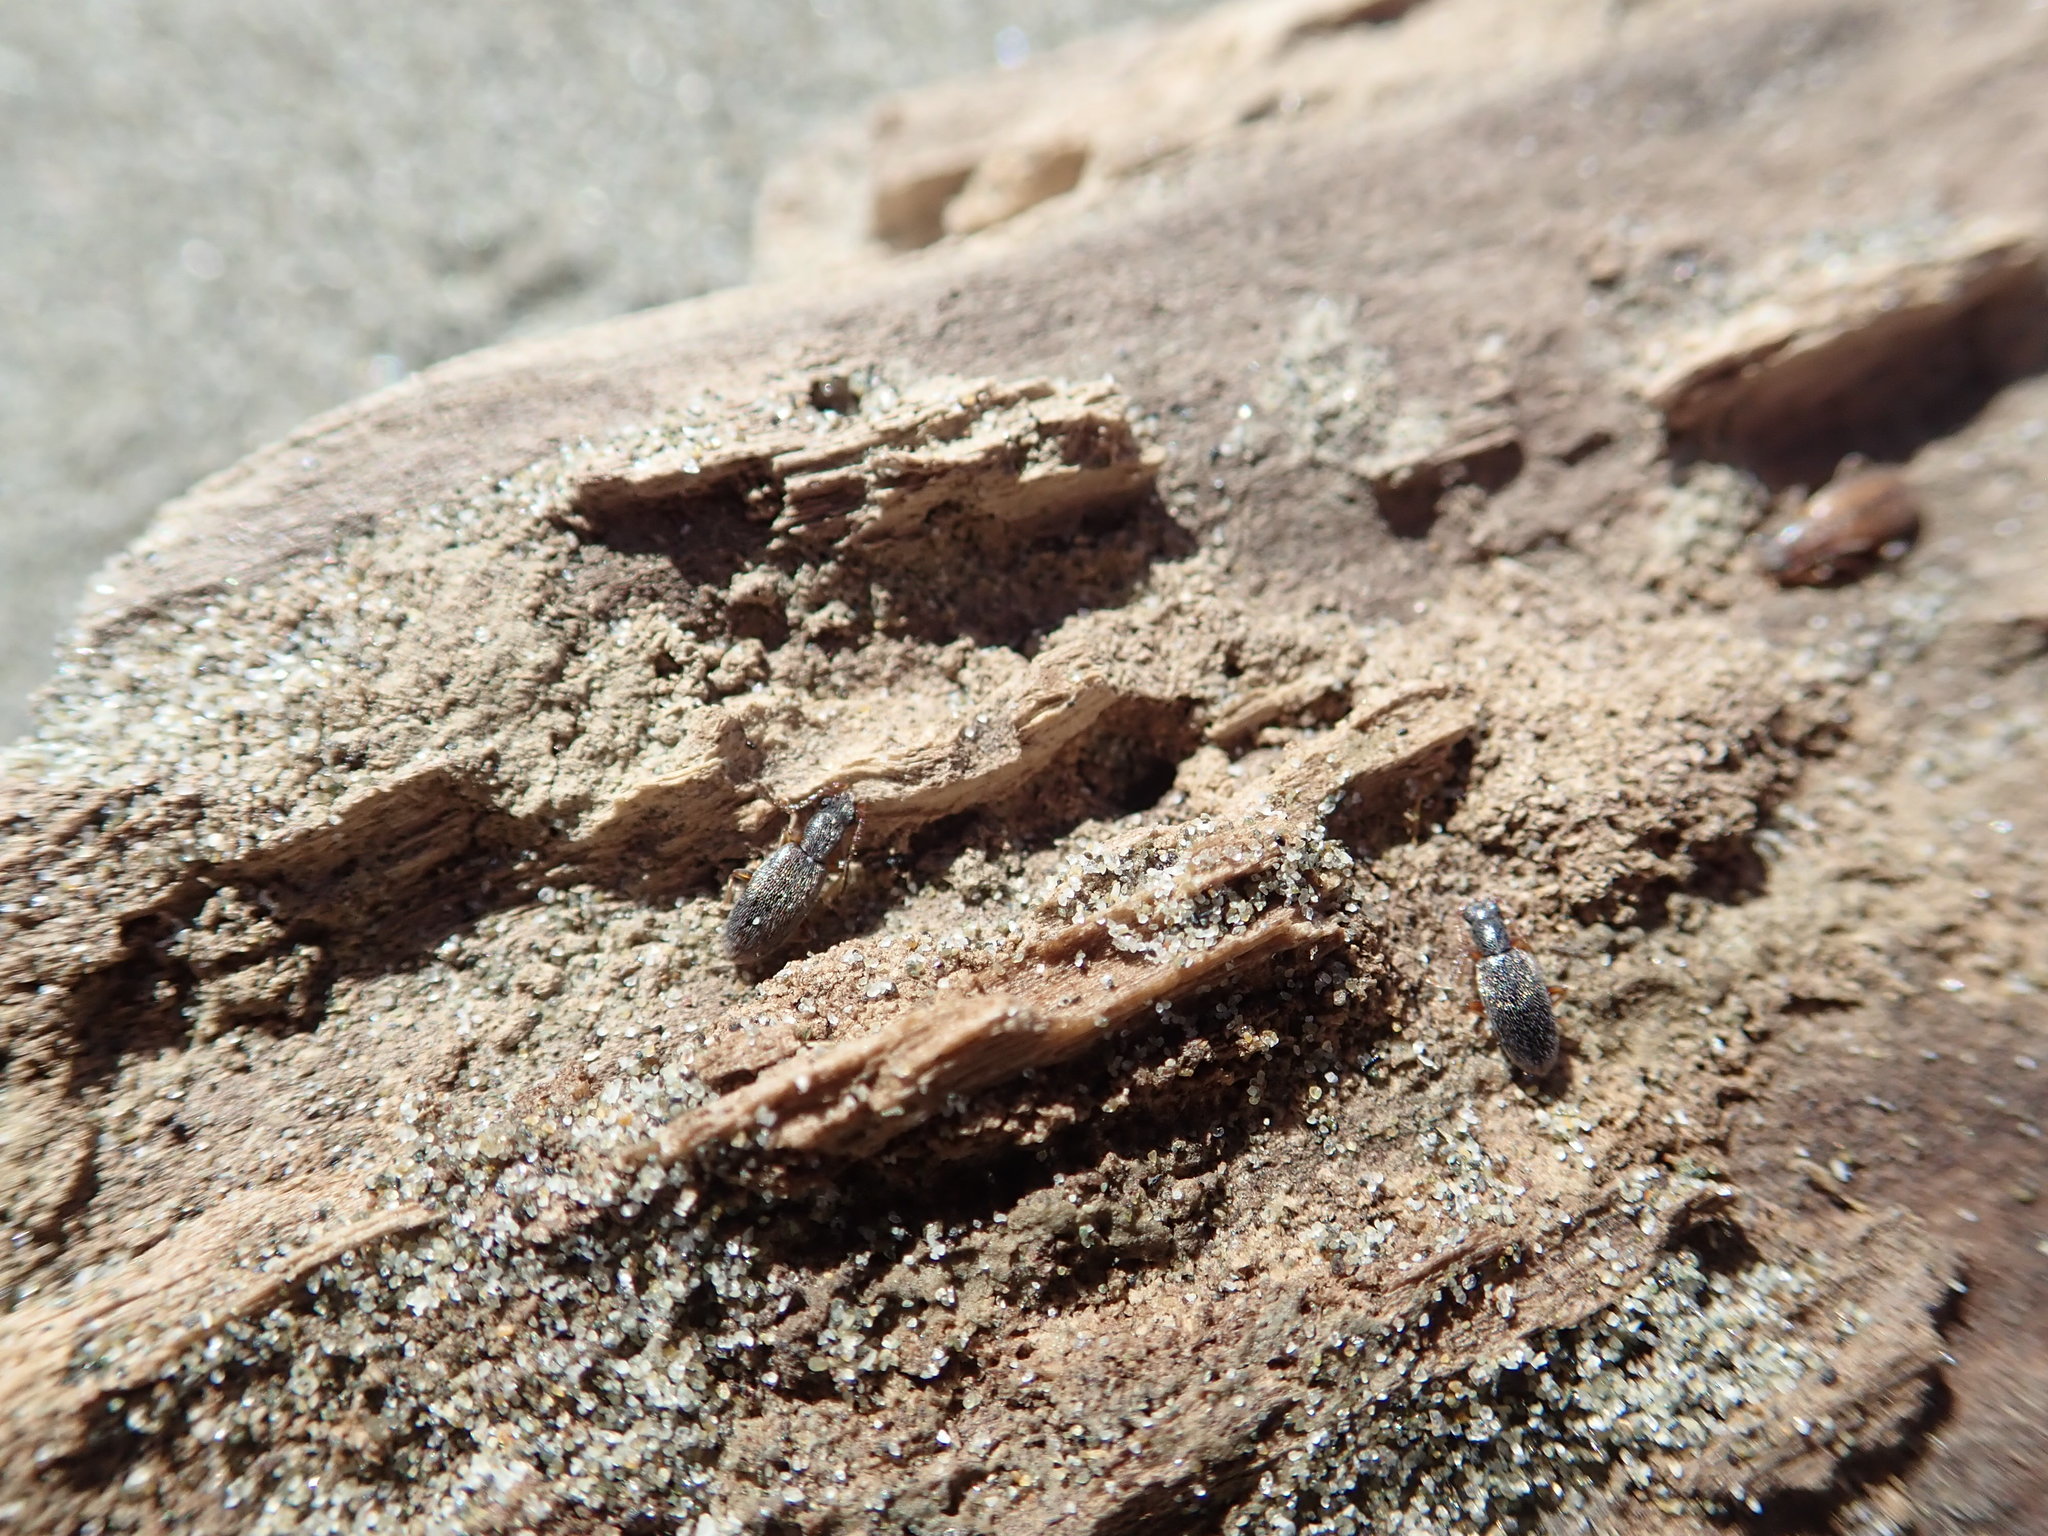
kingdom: Animalia
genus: Lagrioda
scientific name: Lagrioda brounii
